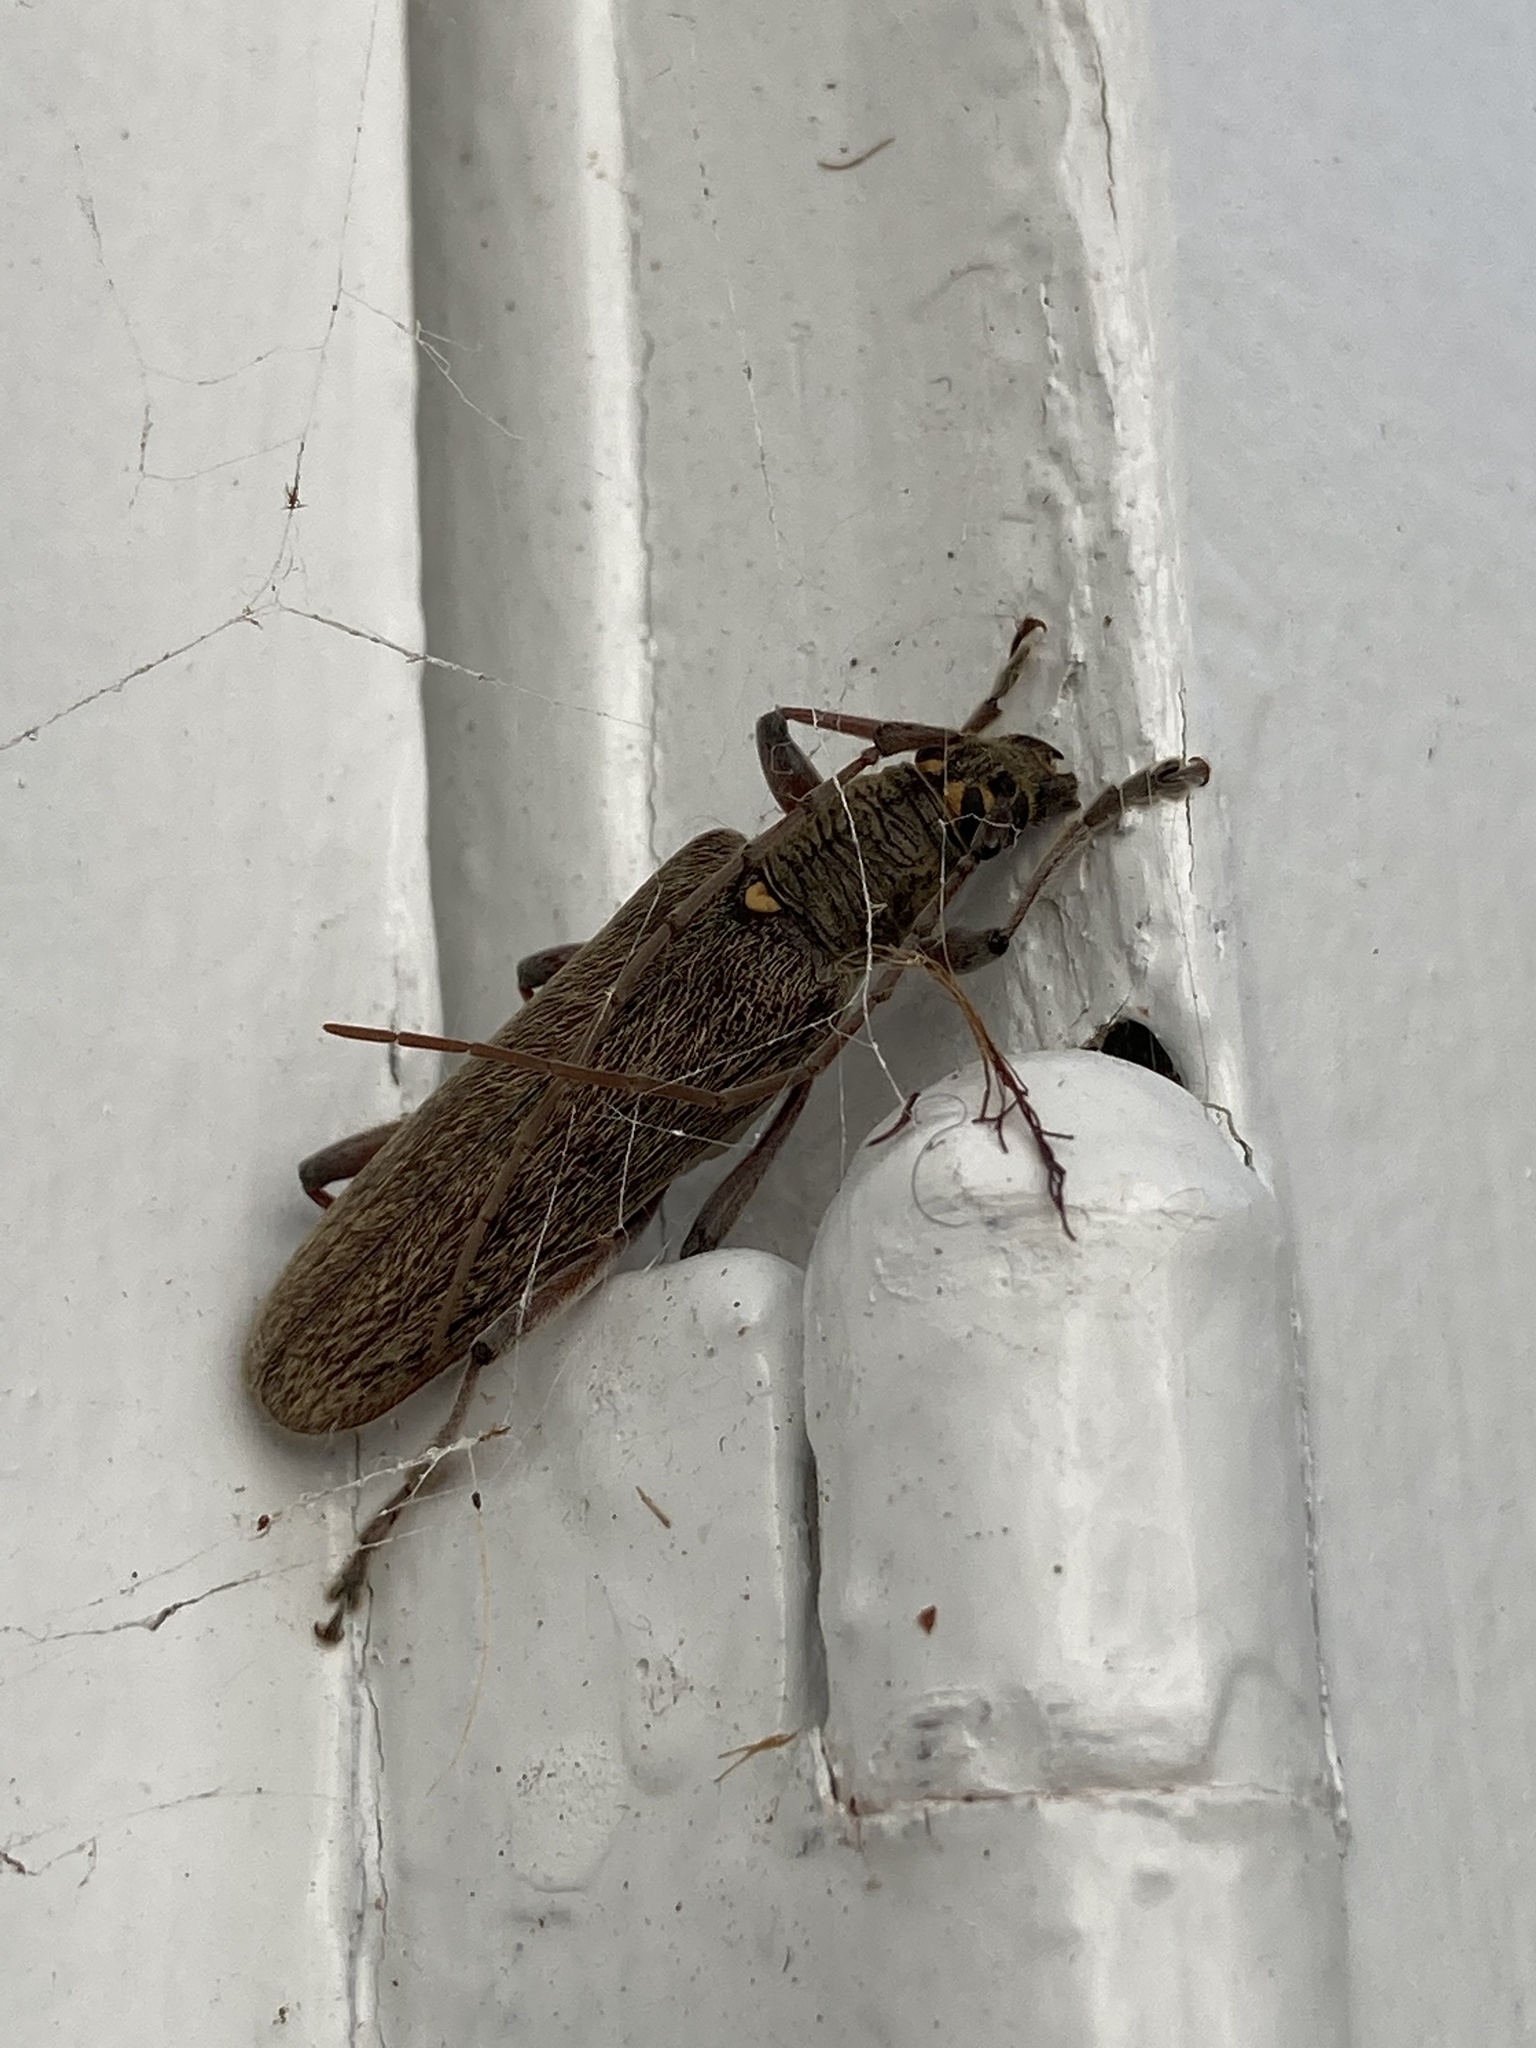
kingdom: Animalia
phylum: Arthropoda
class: Insecta
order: Coleoptera
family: Cerambycidae
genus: Oemona
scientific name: Oemona hirta
